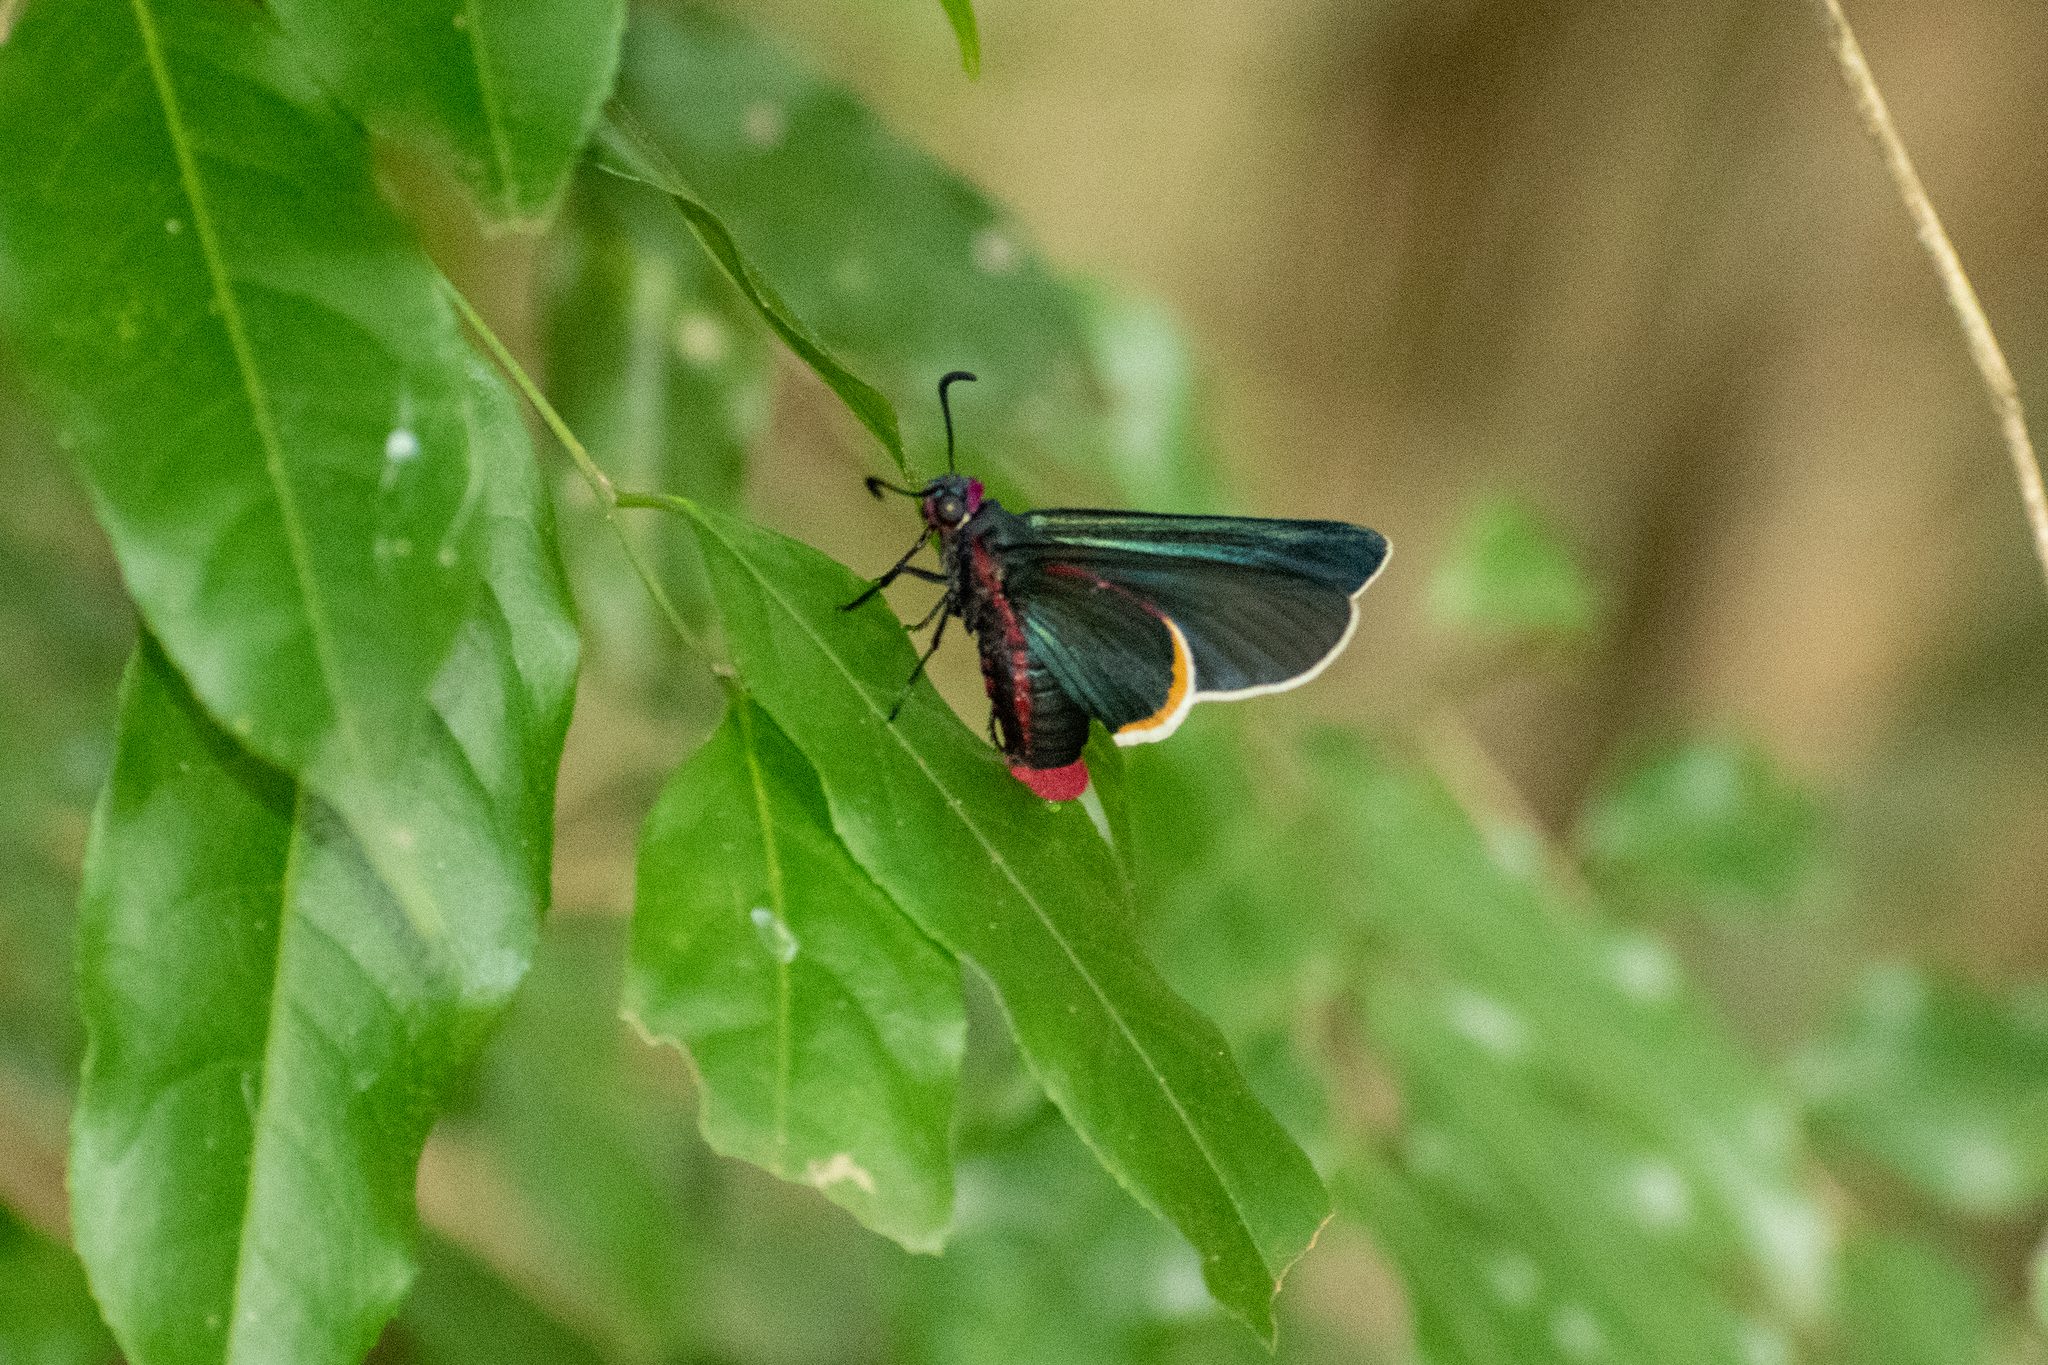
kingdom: Animalia
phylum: Arthropoda
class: Insecta
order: Lepidoptera
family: Hesperiidae
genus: Mysoria
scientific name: Mysoria barcastus
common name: Royal firetip
